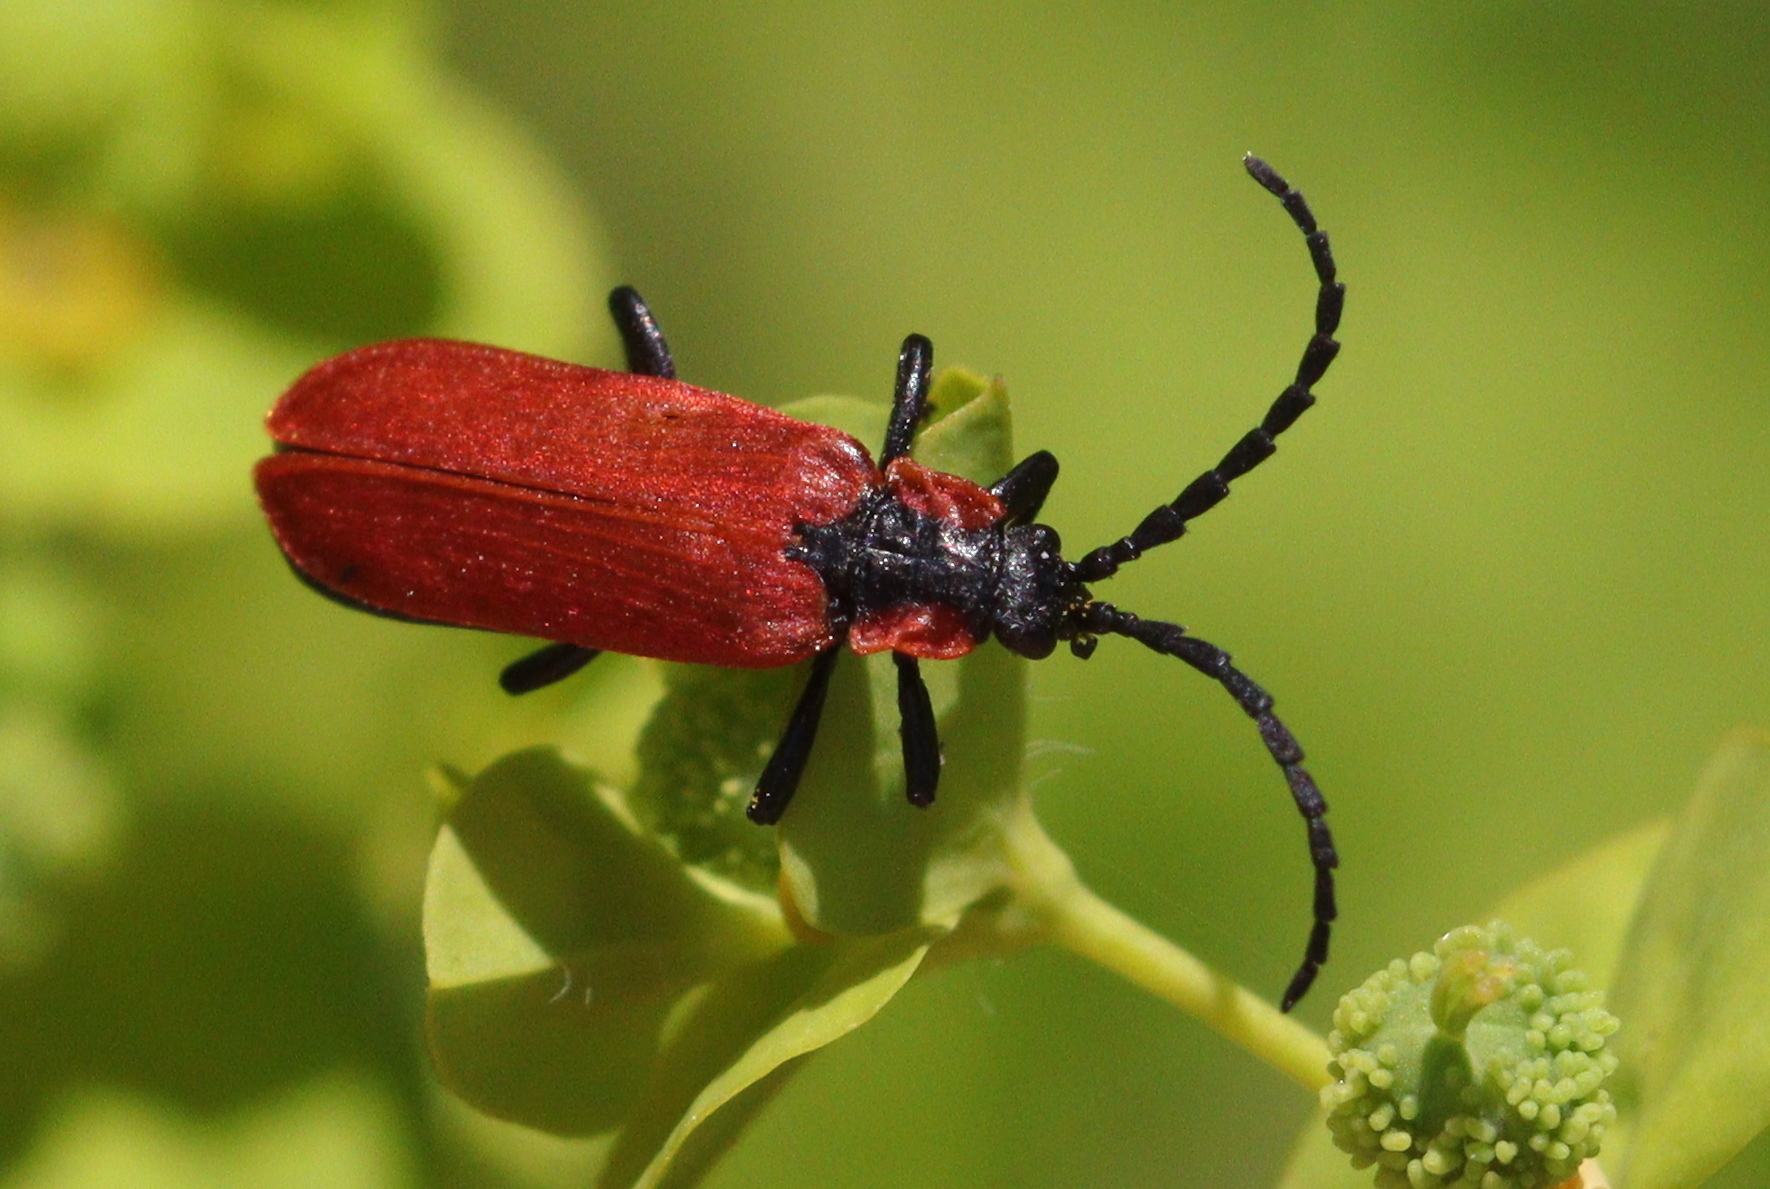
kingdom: Animalia
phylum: Arthropoda
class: Insecta
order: Coleoptera
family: Lycidae
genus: Lygistopterus
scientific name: Lygistopterus sanguineus
